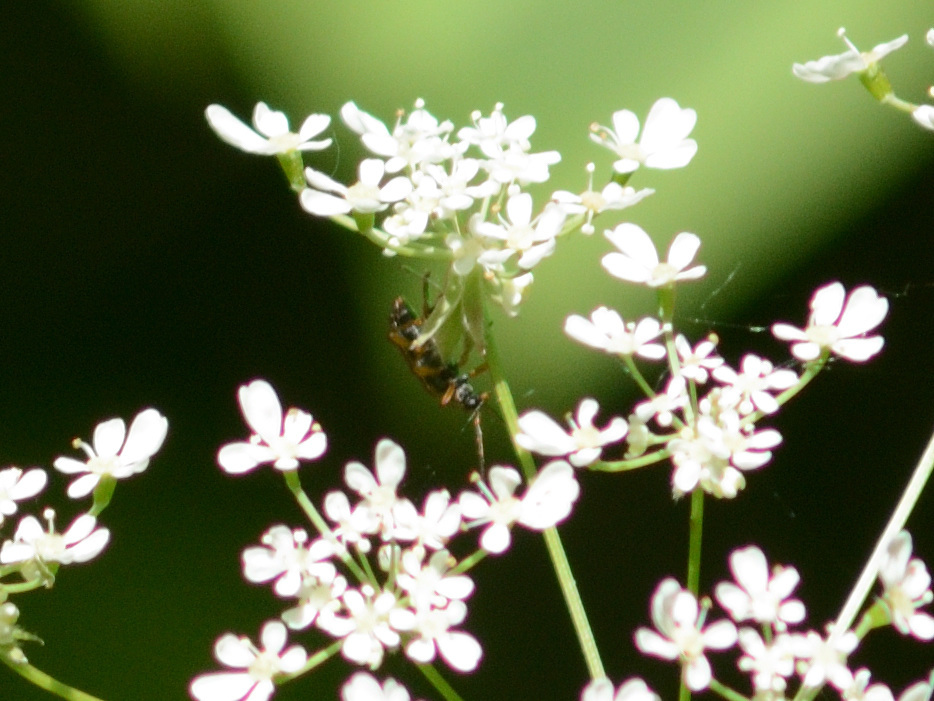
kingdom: Animalia
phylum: Arthropoda
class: Insecta
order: Coleoptera
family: Cerambycidae
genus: Alosterna
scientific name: Alosterna tabacicolor
